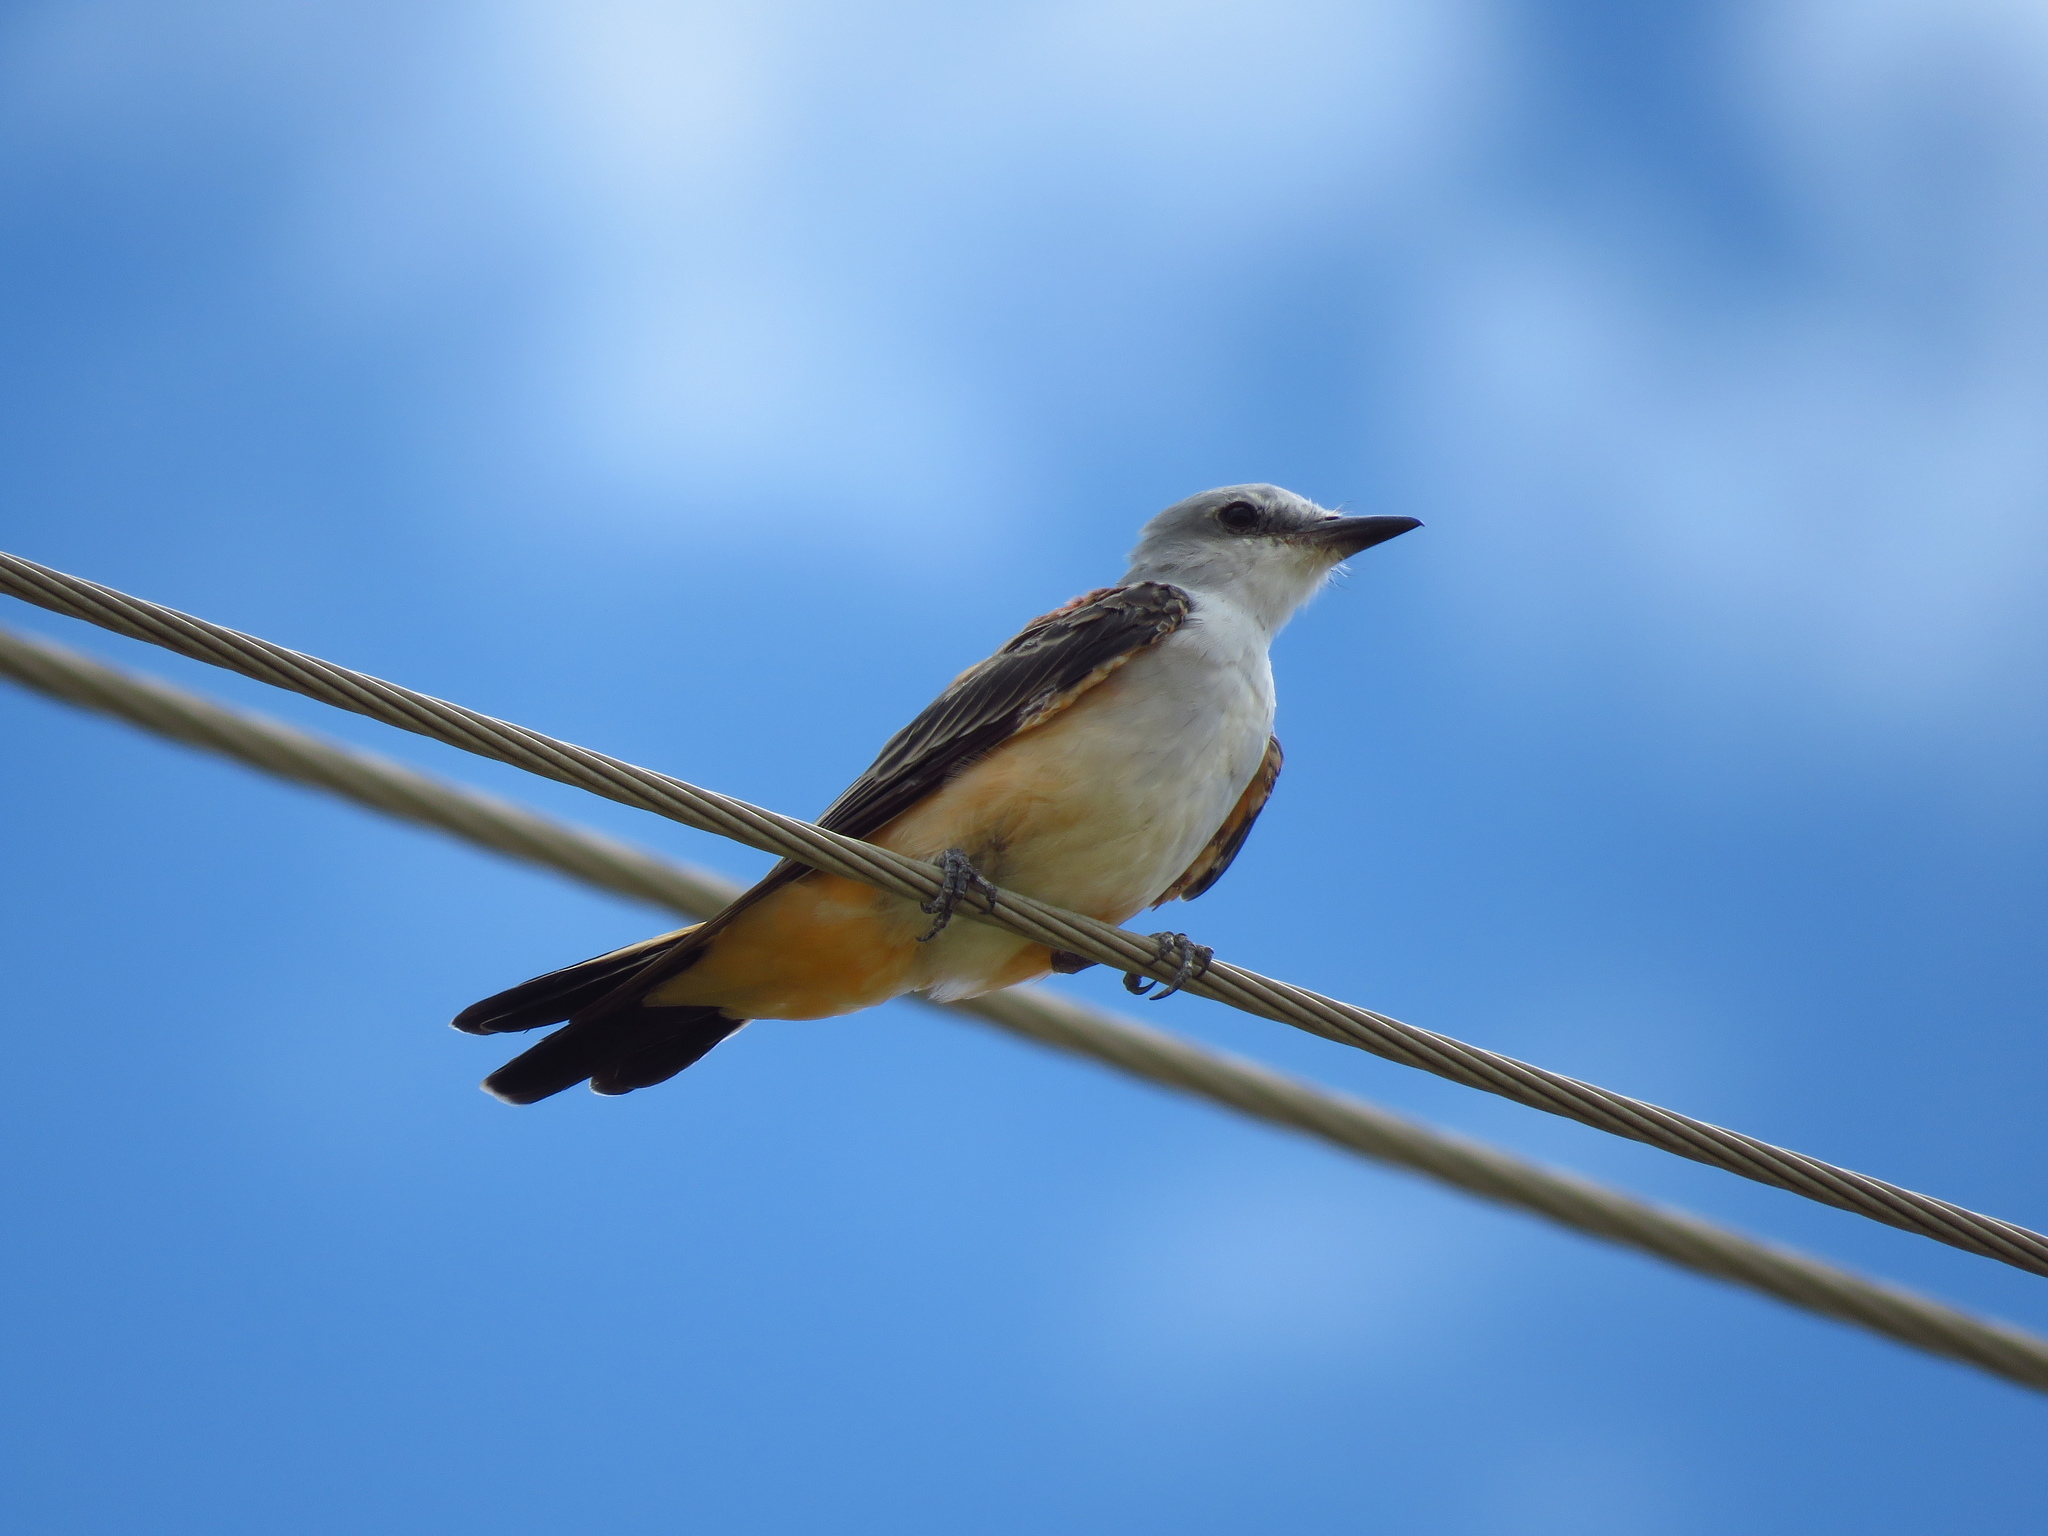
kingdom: Animalia
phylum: Chordata
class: Aves
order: Passeriformes
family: Tyrannidae
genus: Tyrannus
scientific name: Tyrannus forficatus
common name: Scissor-tailed flycatcher
